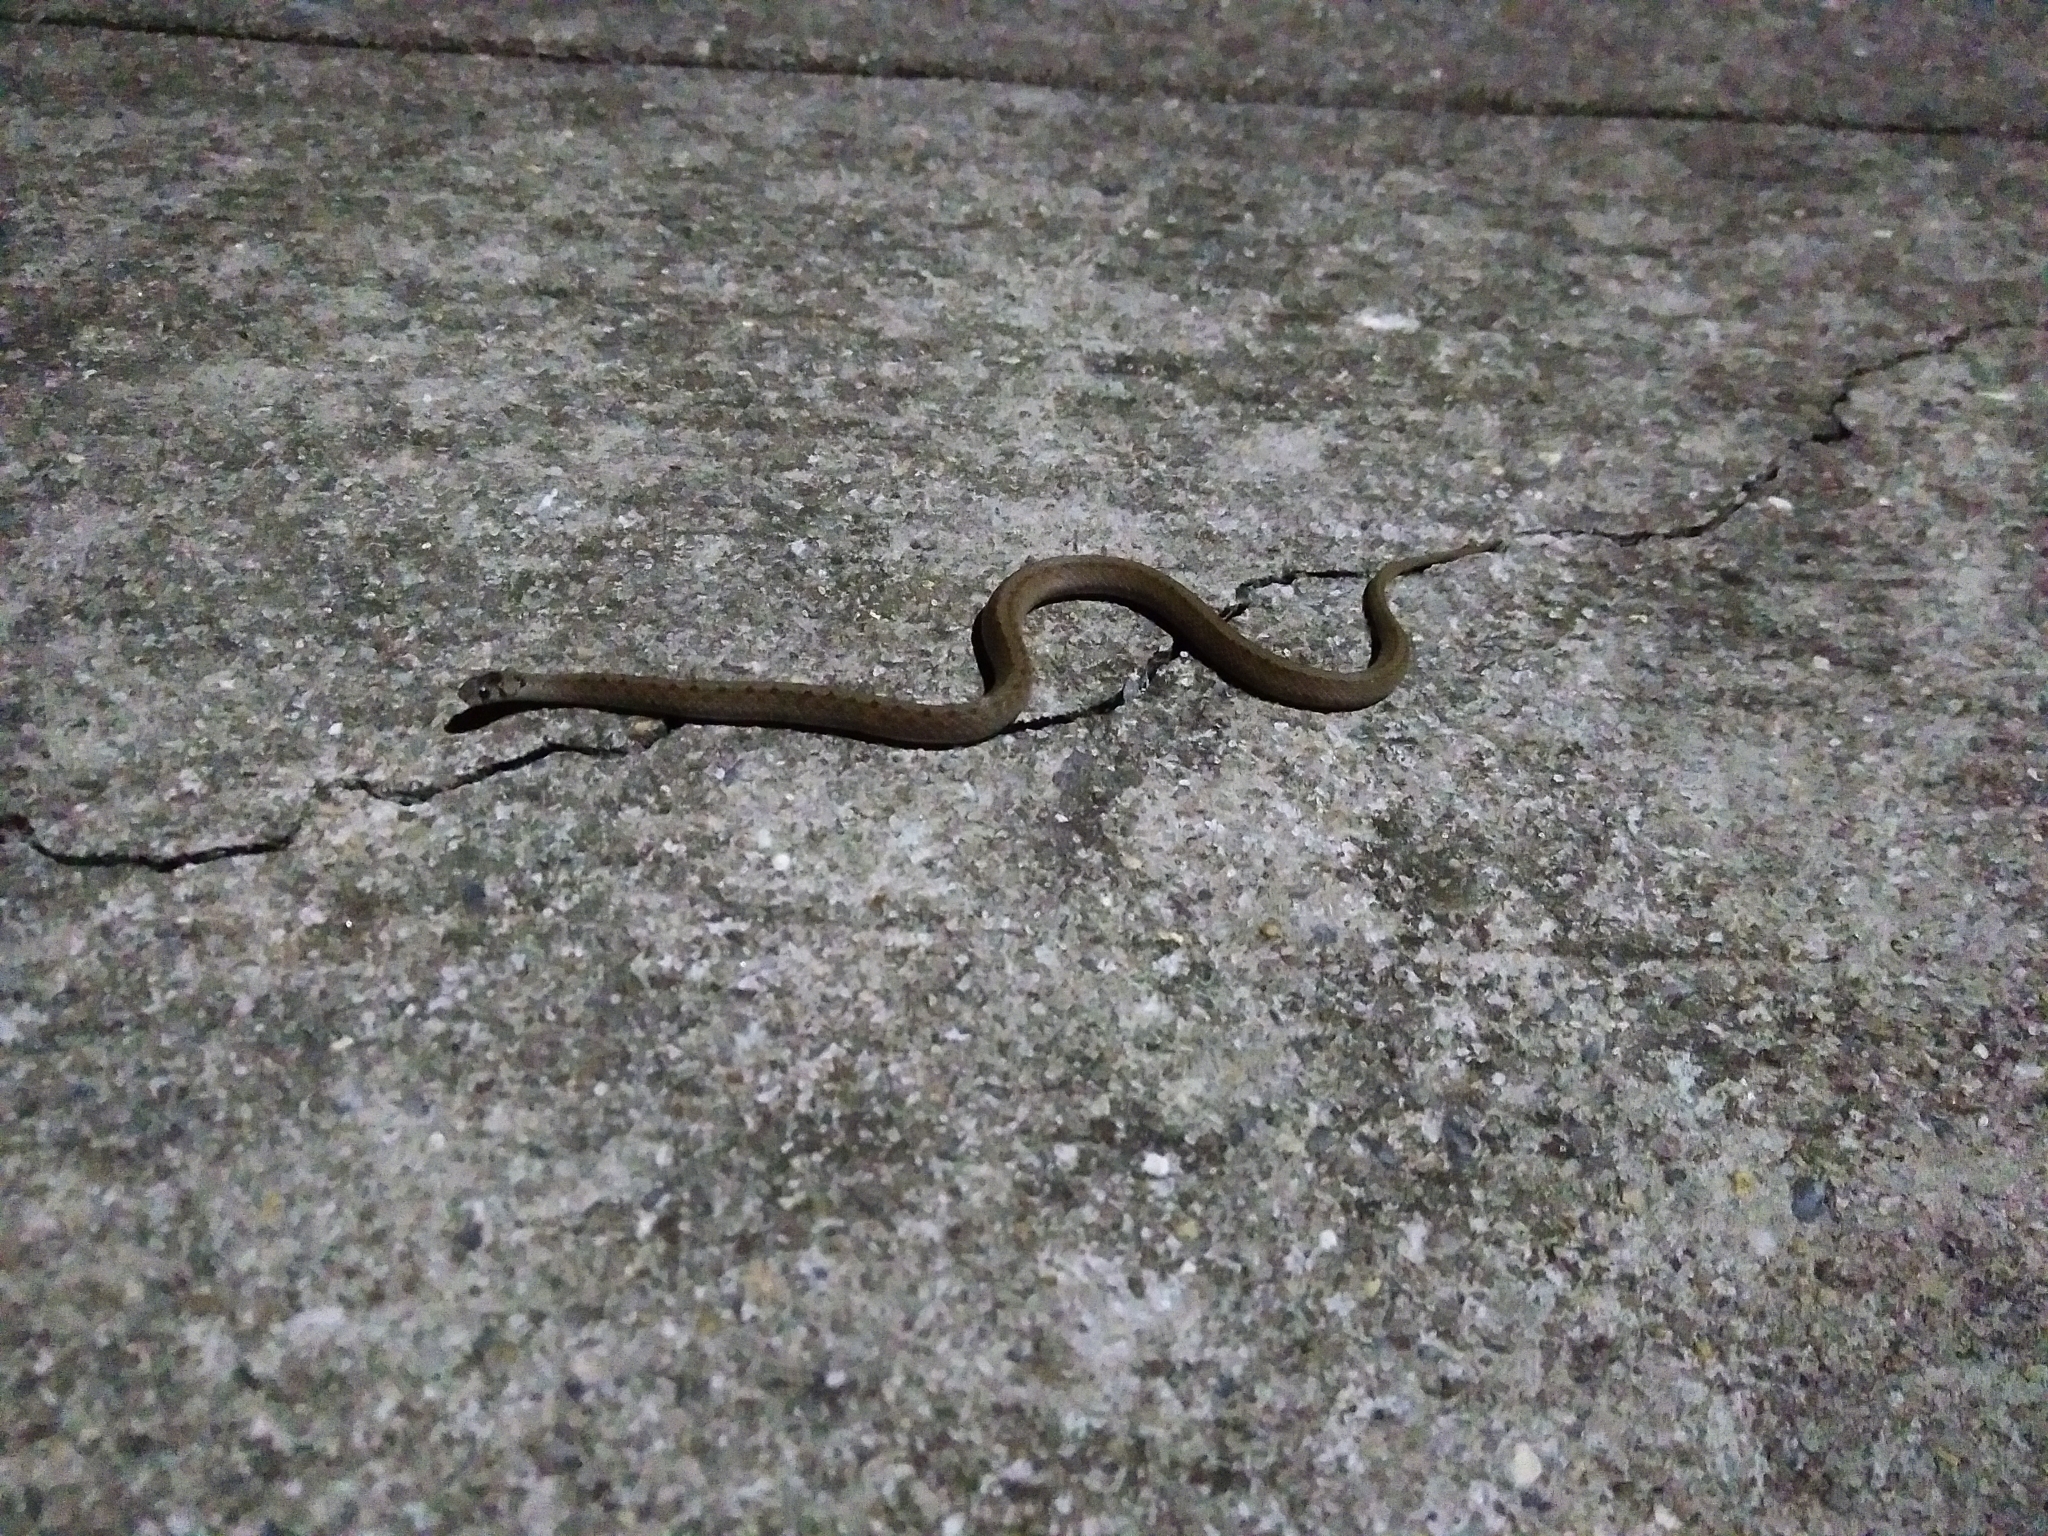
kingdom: Animalia
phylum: Chordata
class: Squamata
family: Colubridae
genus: Storeria
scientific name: Storeria dekayi
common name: (dekay’s) brown snake
